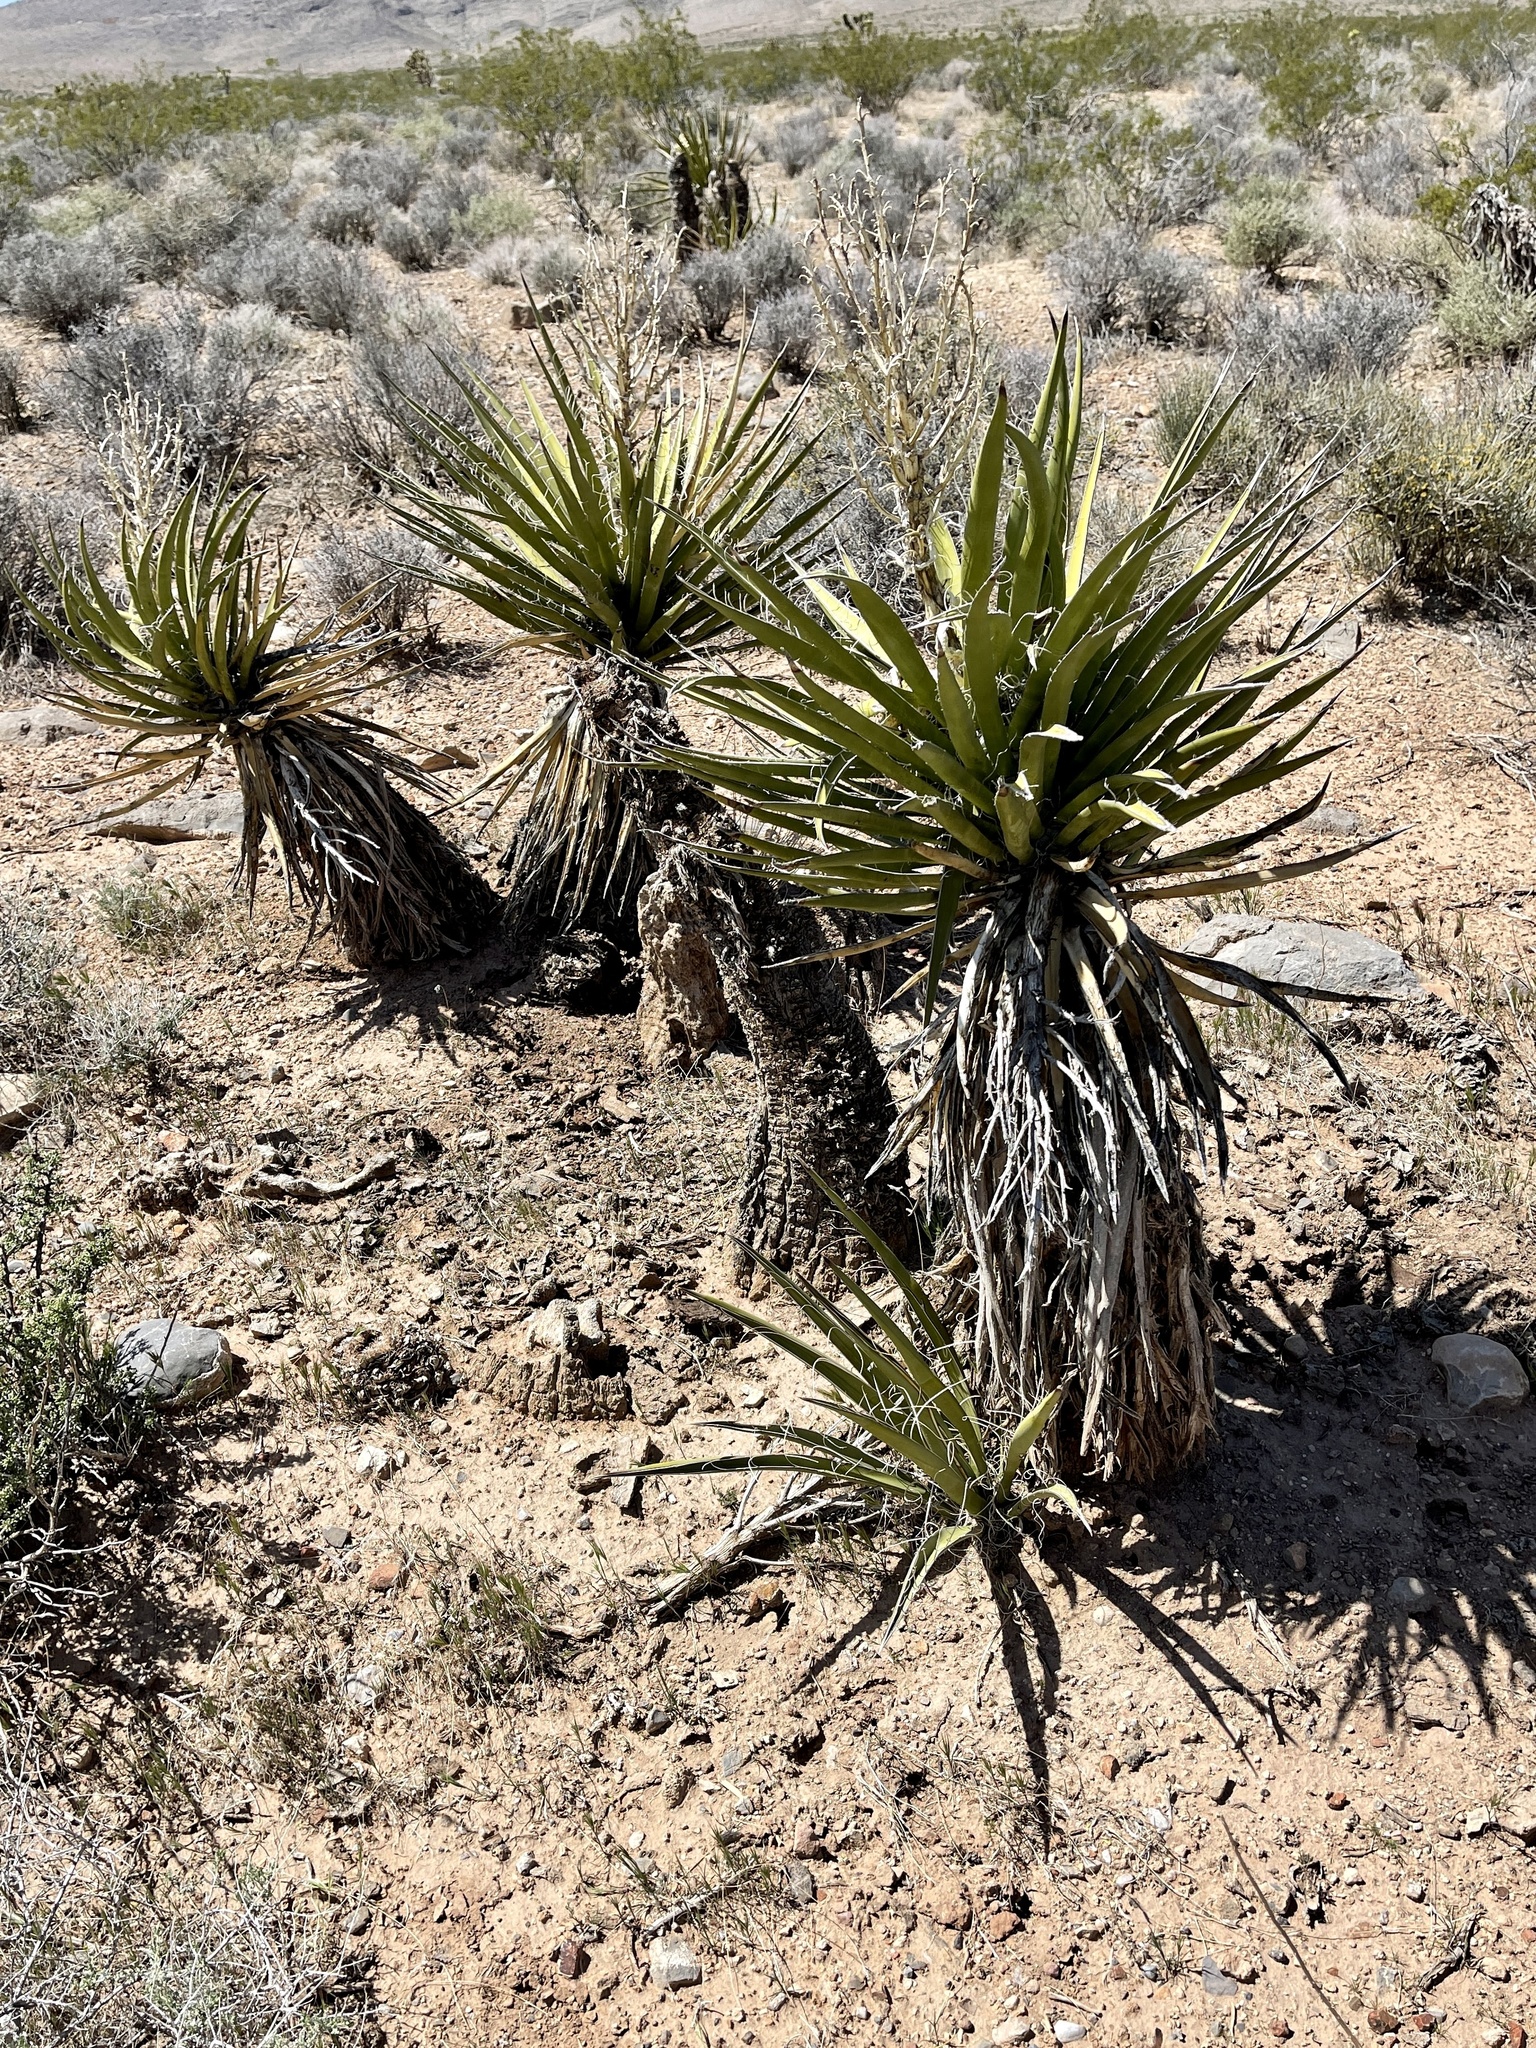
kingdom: Plantae
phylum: Tracheophyta
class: Liliopsida
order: Asparagales
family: Asparagaceae
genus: Yucca
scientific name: Yucca schidigera
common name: Mojave yucca
